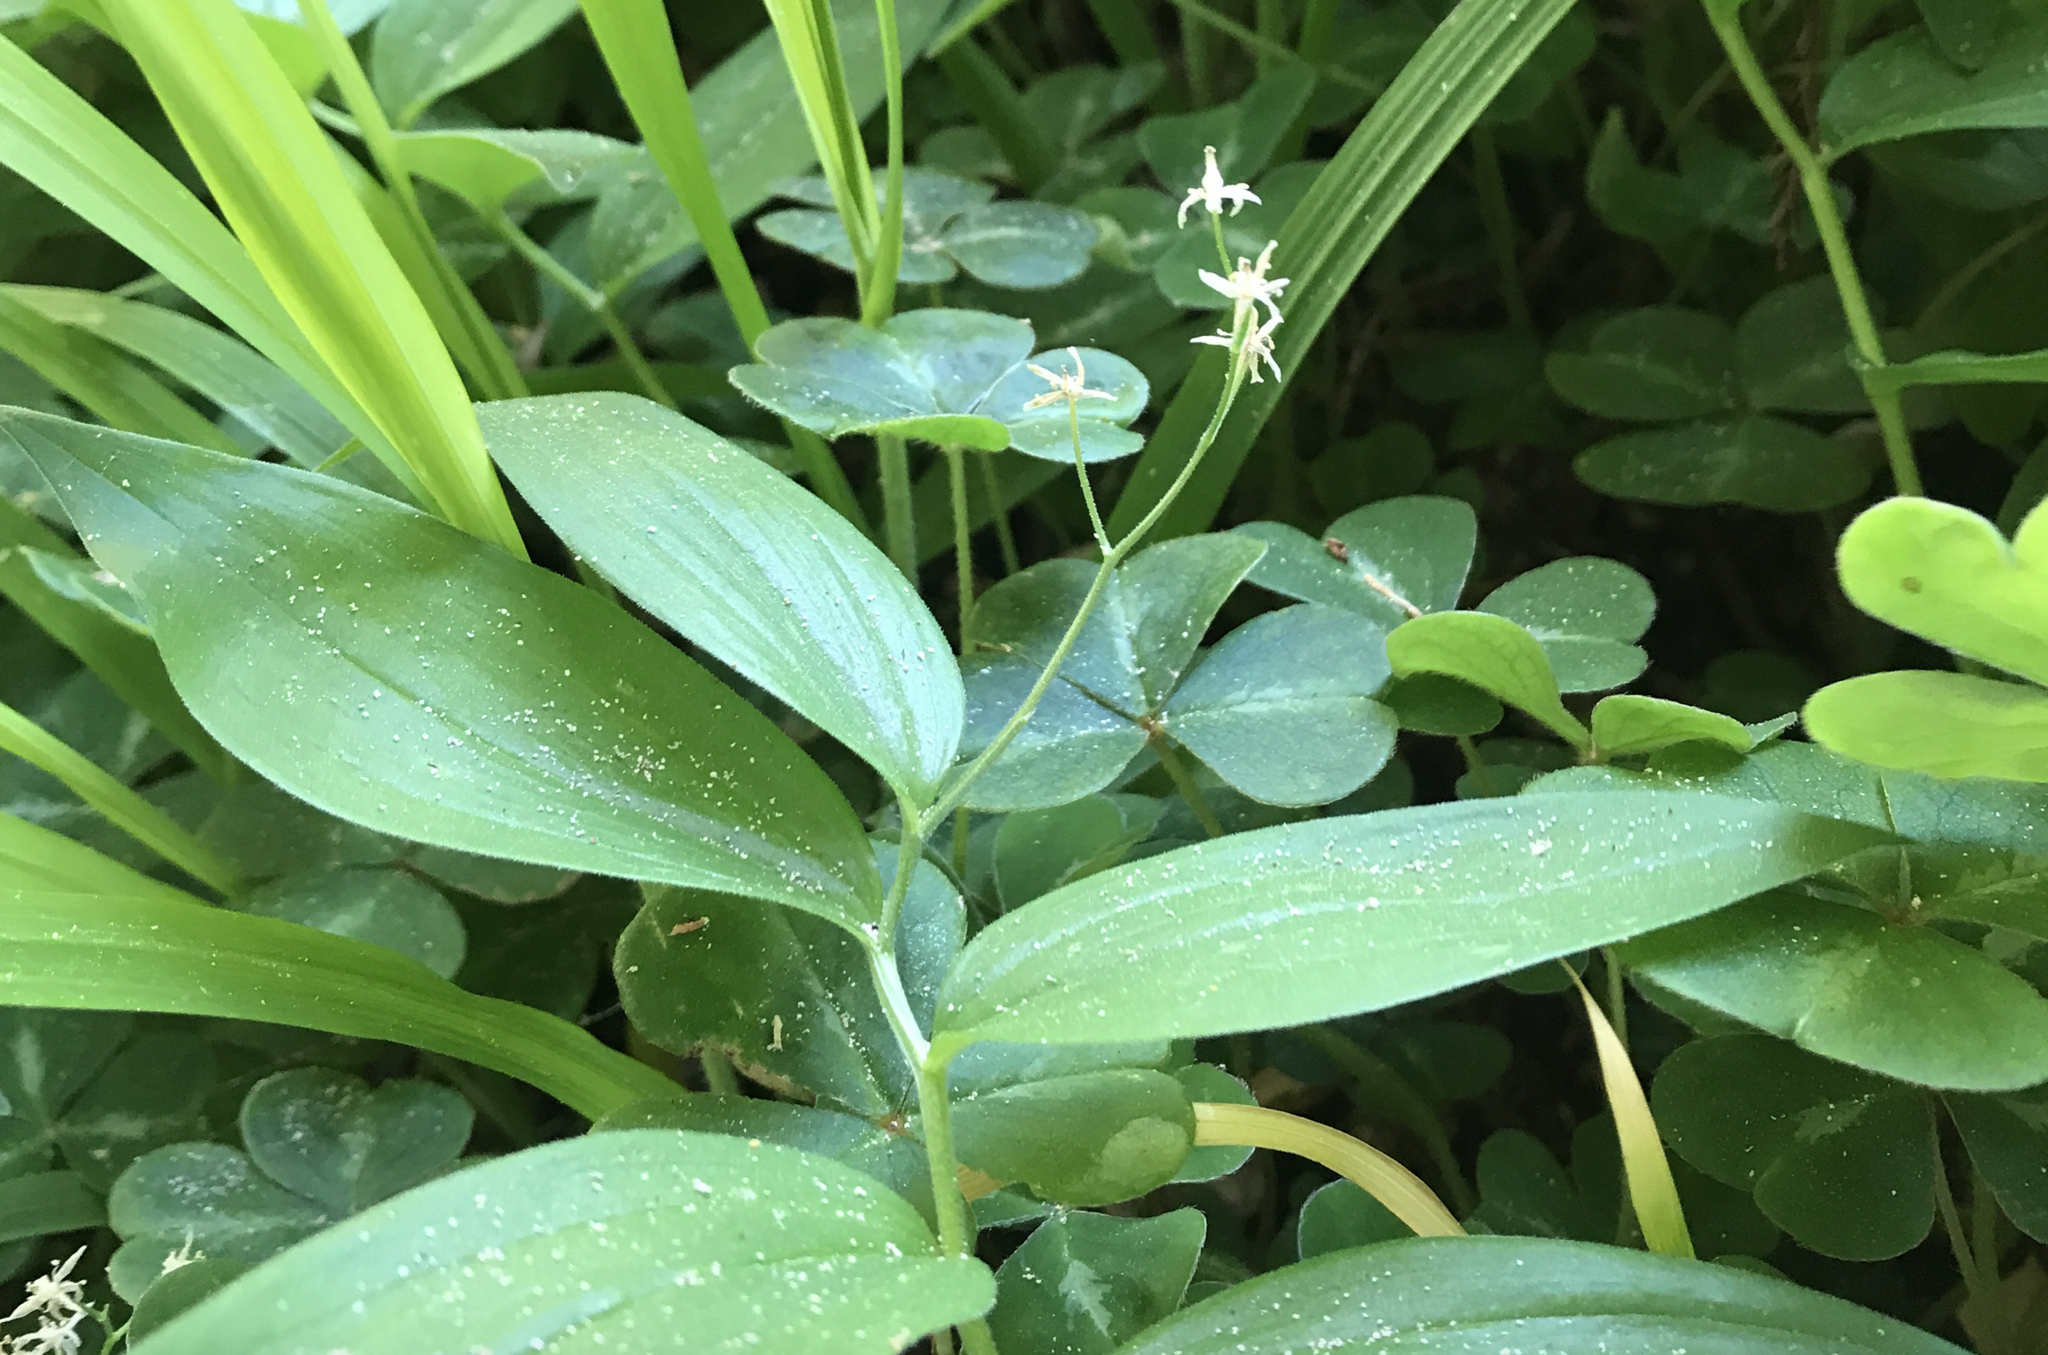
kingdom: Plantae
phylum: Tracheophyta
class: Liliopsida
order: Asparagales
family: Asparagaceae
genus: Maianthemum
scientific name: Maianthemum stellatum
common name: Little false solomon's seal
